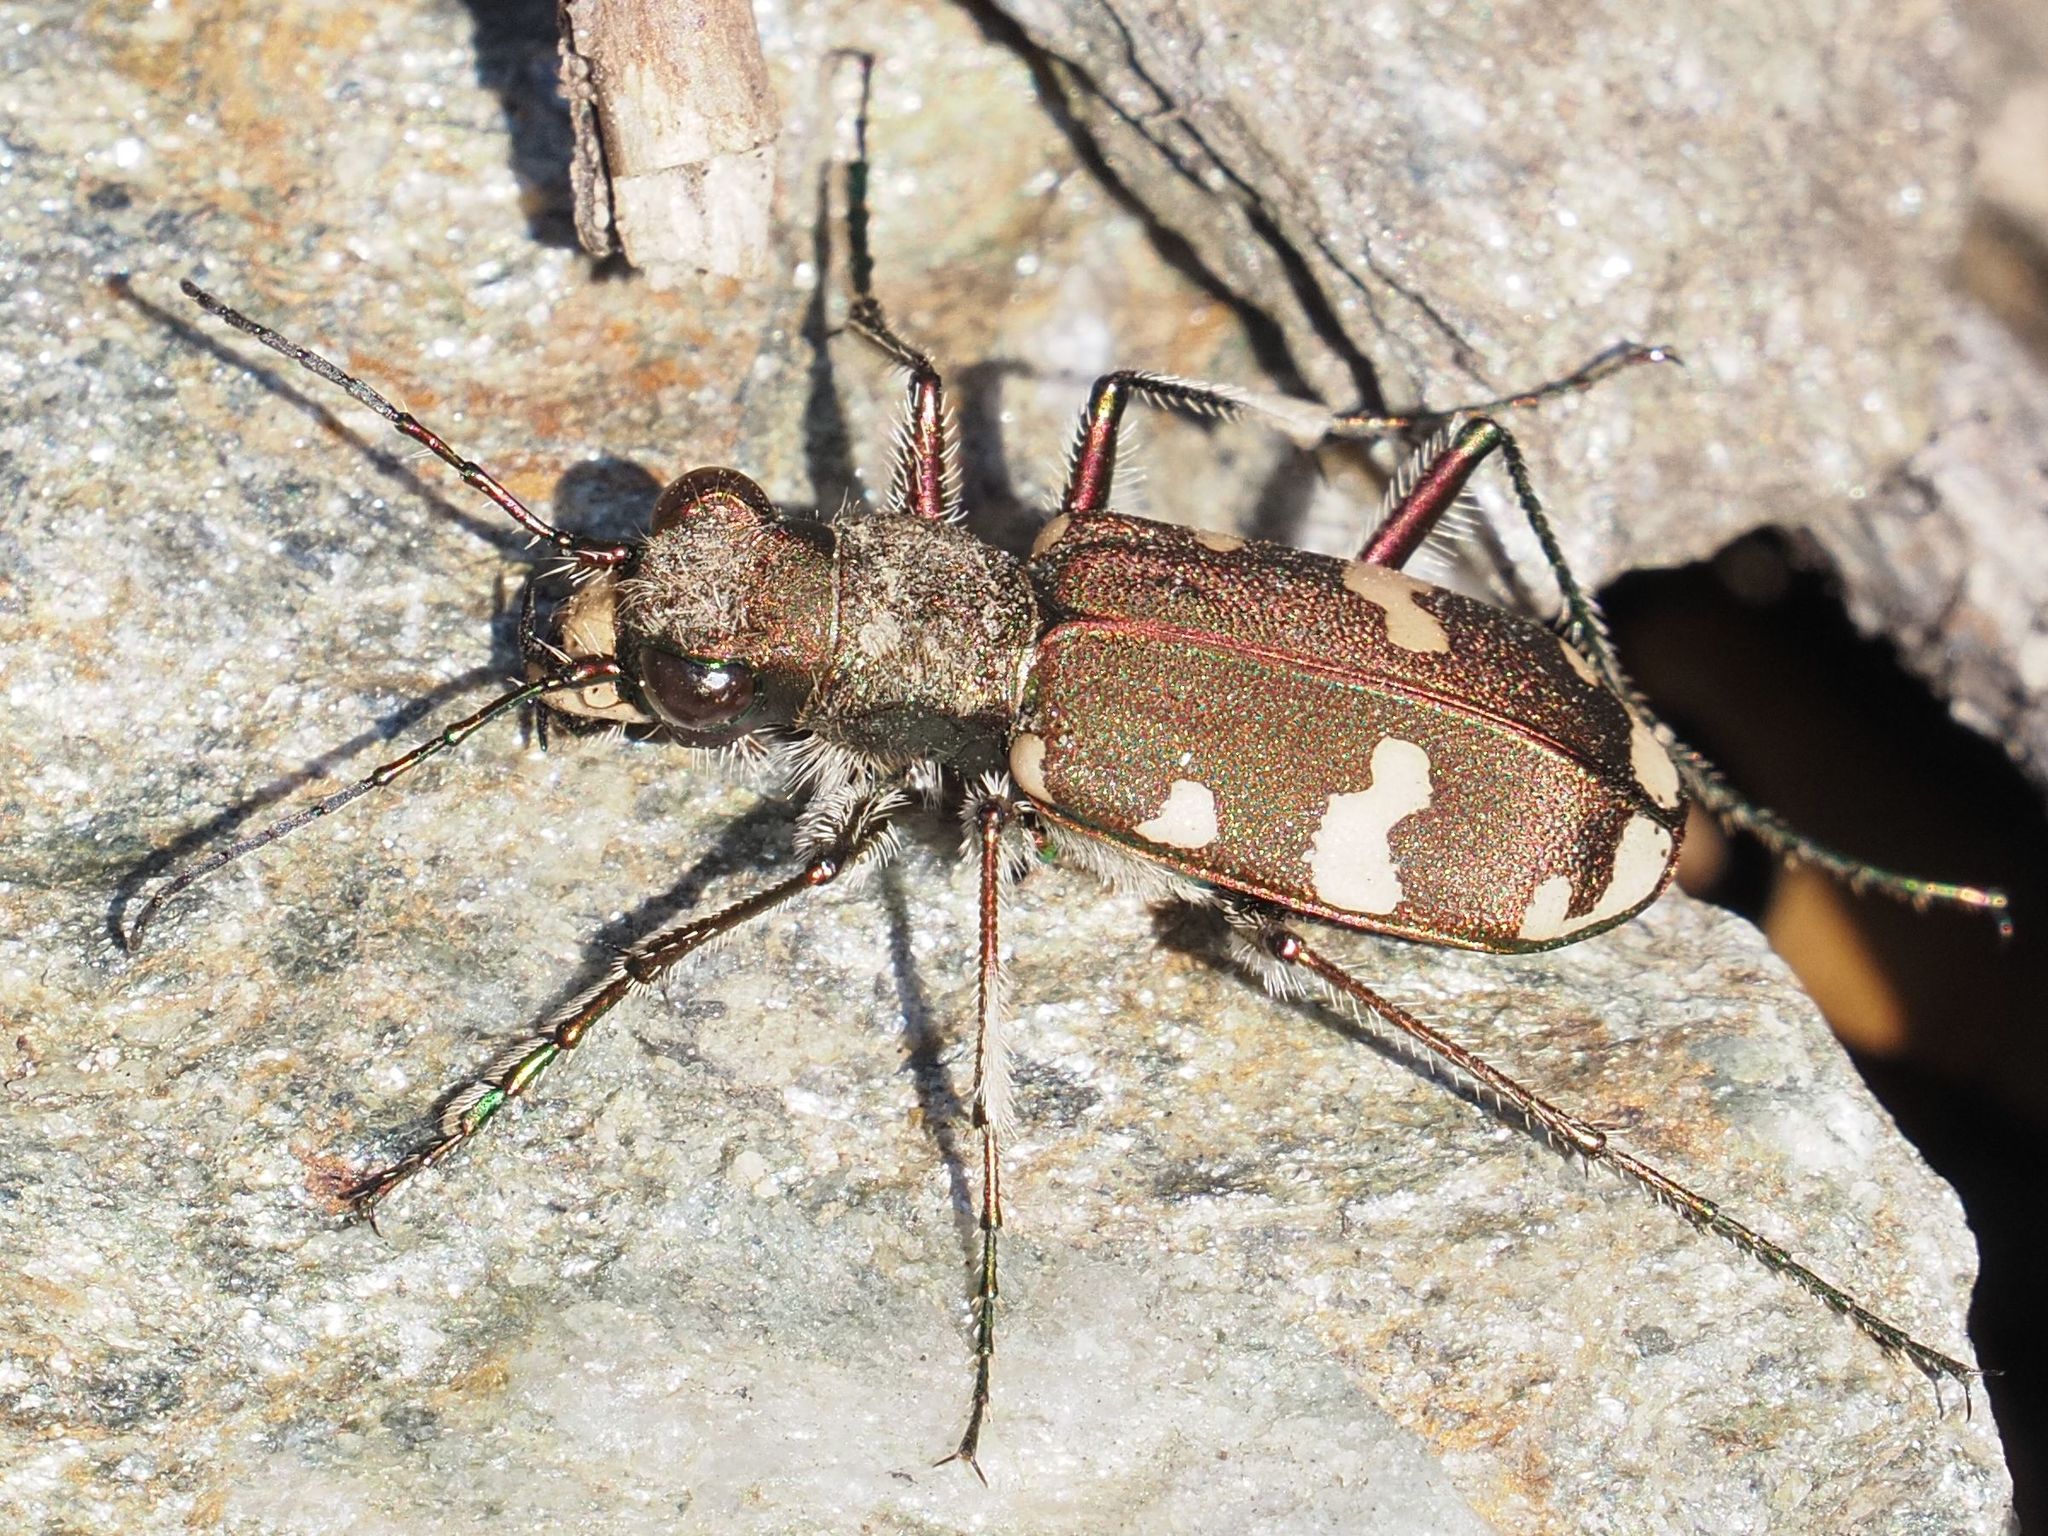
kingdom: Animalia
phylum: Arthropoda
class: Insecta
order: Coleoptera
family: Carabidae
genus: Cicindela
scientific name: Cicindela sylvicola
